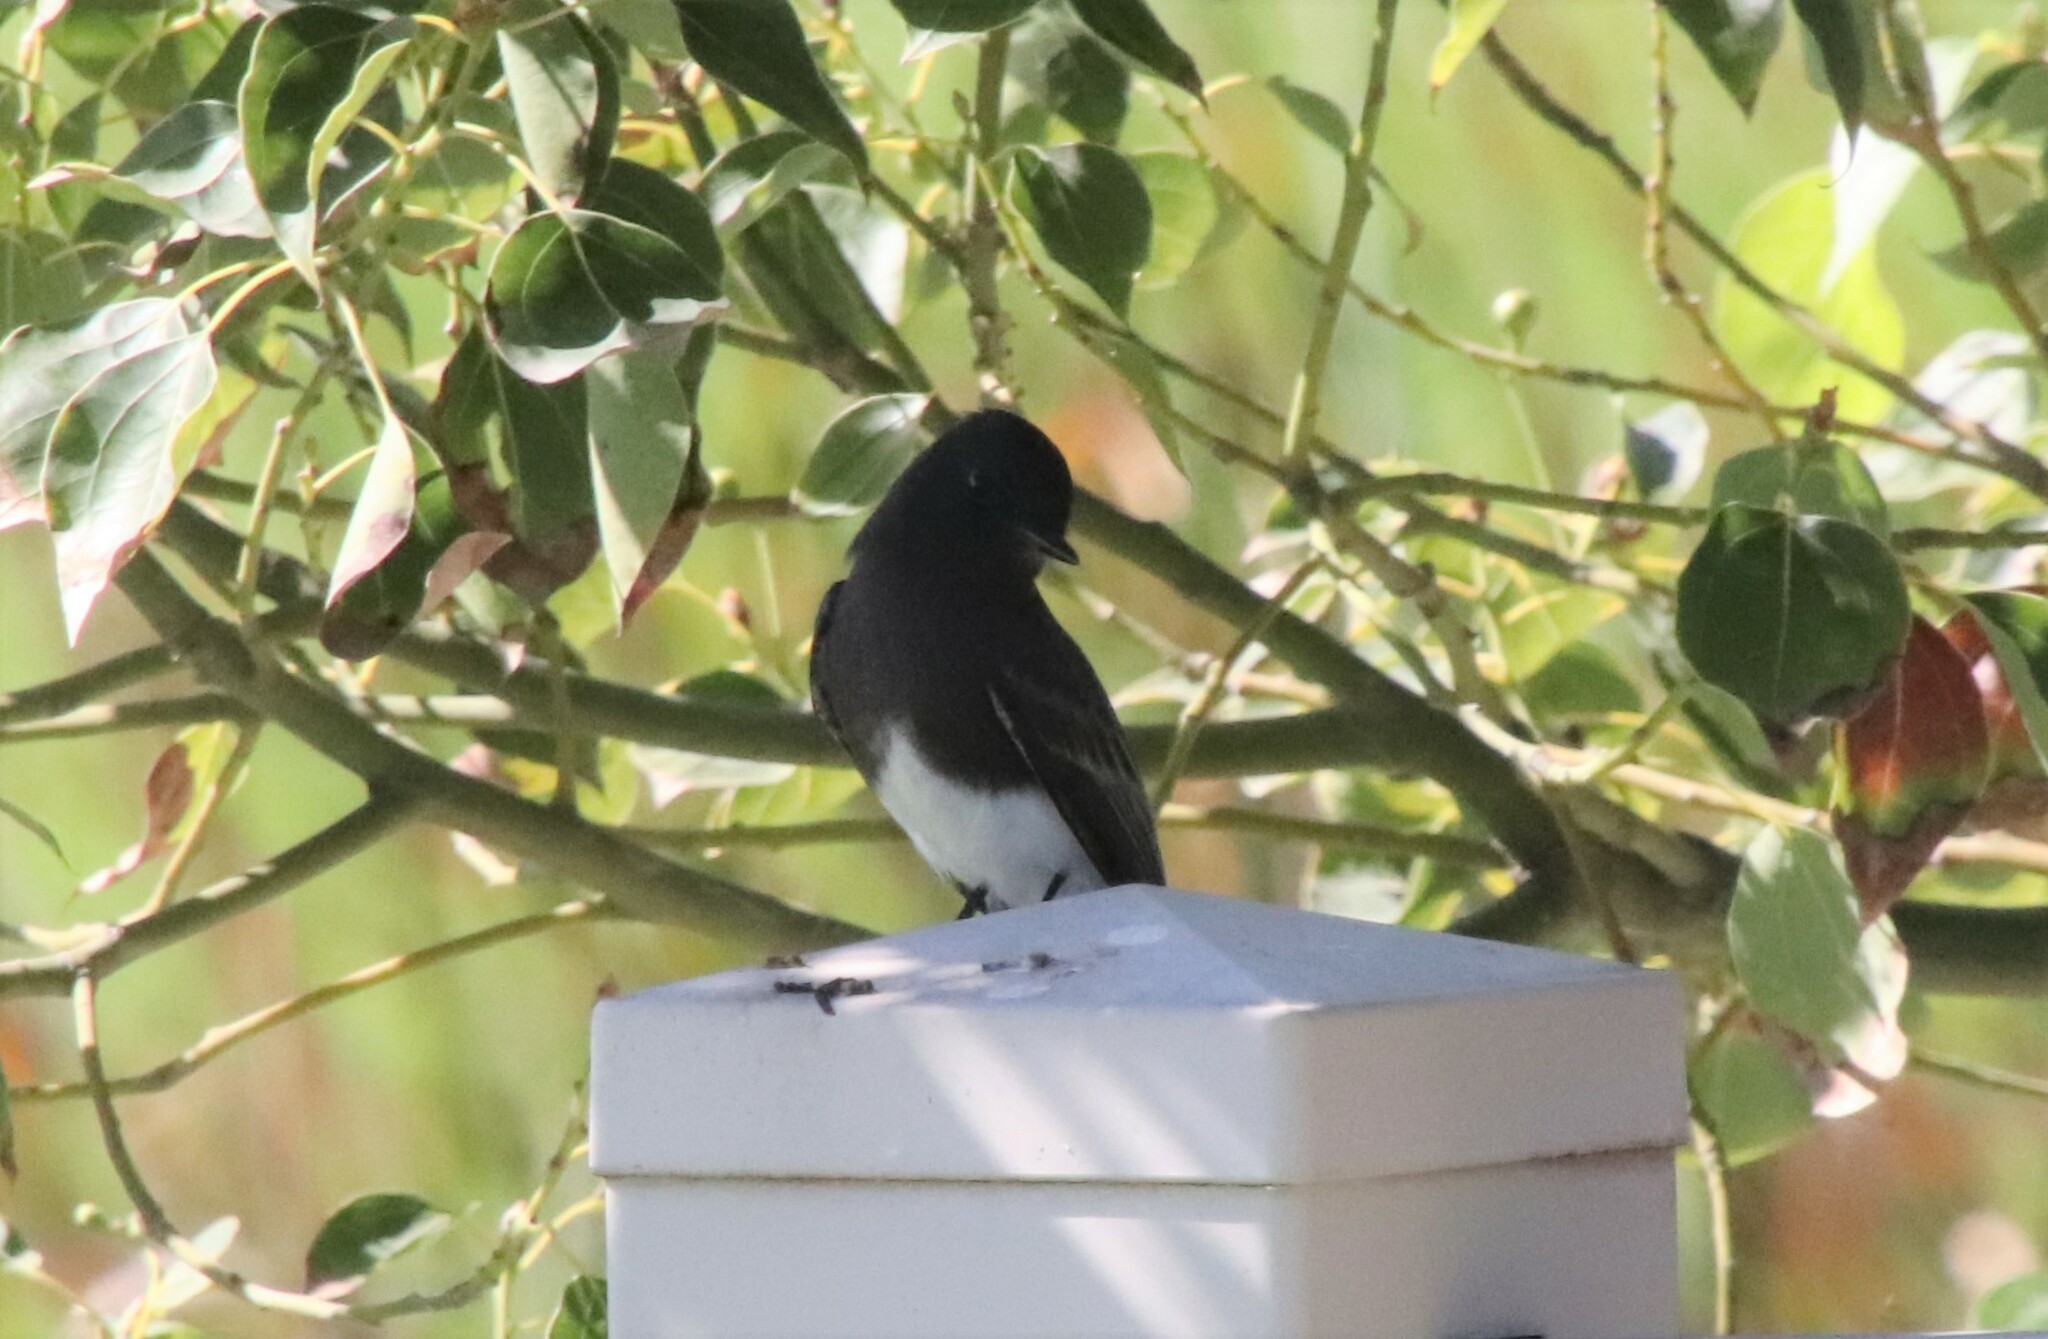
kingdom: Animalia
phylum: Chordata
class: Aves
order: Passeriformes
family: Tyrannidae
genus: Sayornis
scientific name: Sayornis nigricans
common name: Black phoebe
